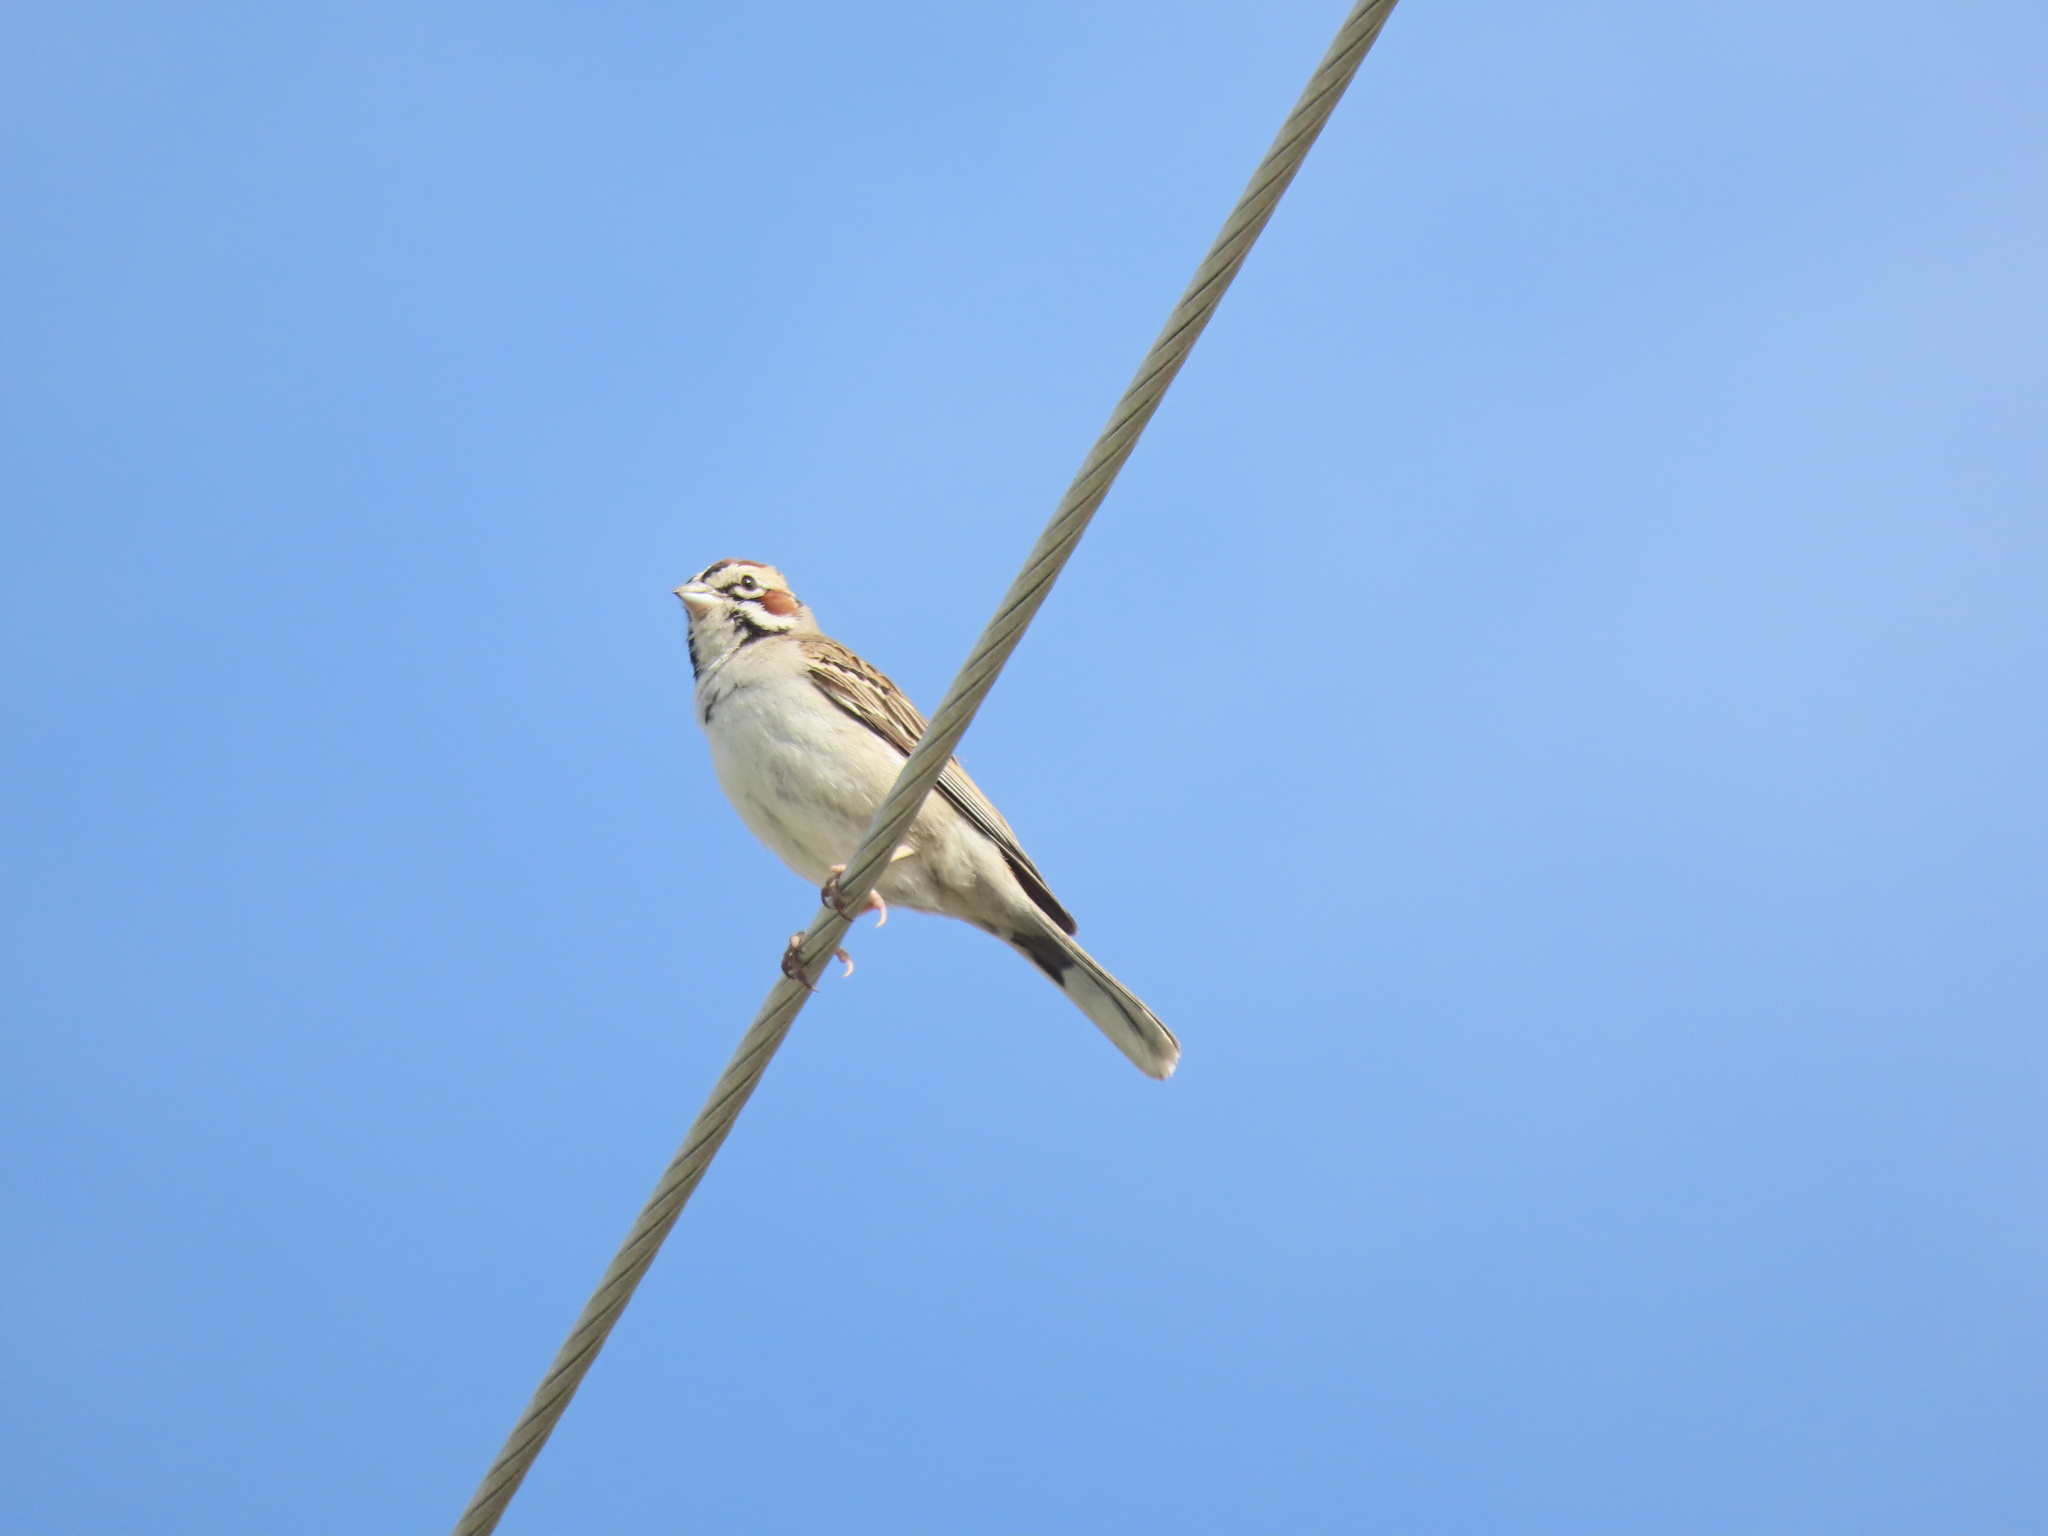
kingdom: Animalia
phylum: Chordata
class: Aves
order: Passeriformes
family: Passerellidae
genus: Chondestes
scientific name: Chondestes grammacus
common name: Lark sparrow
